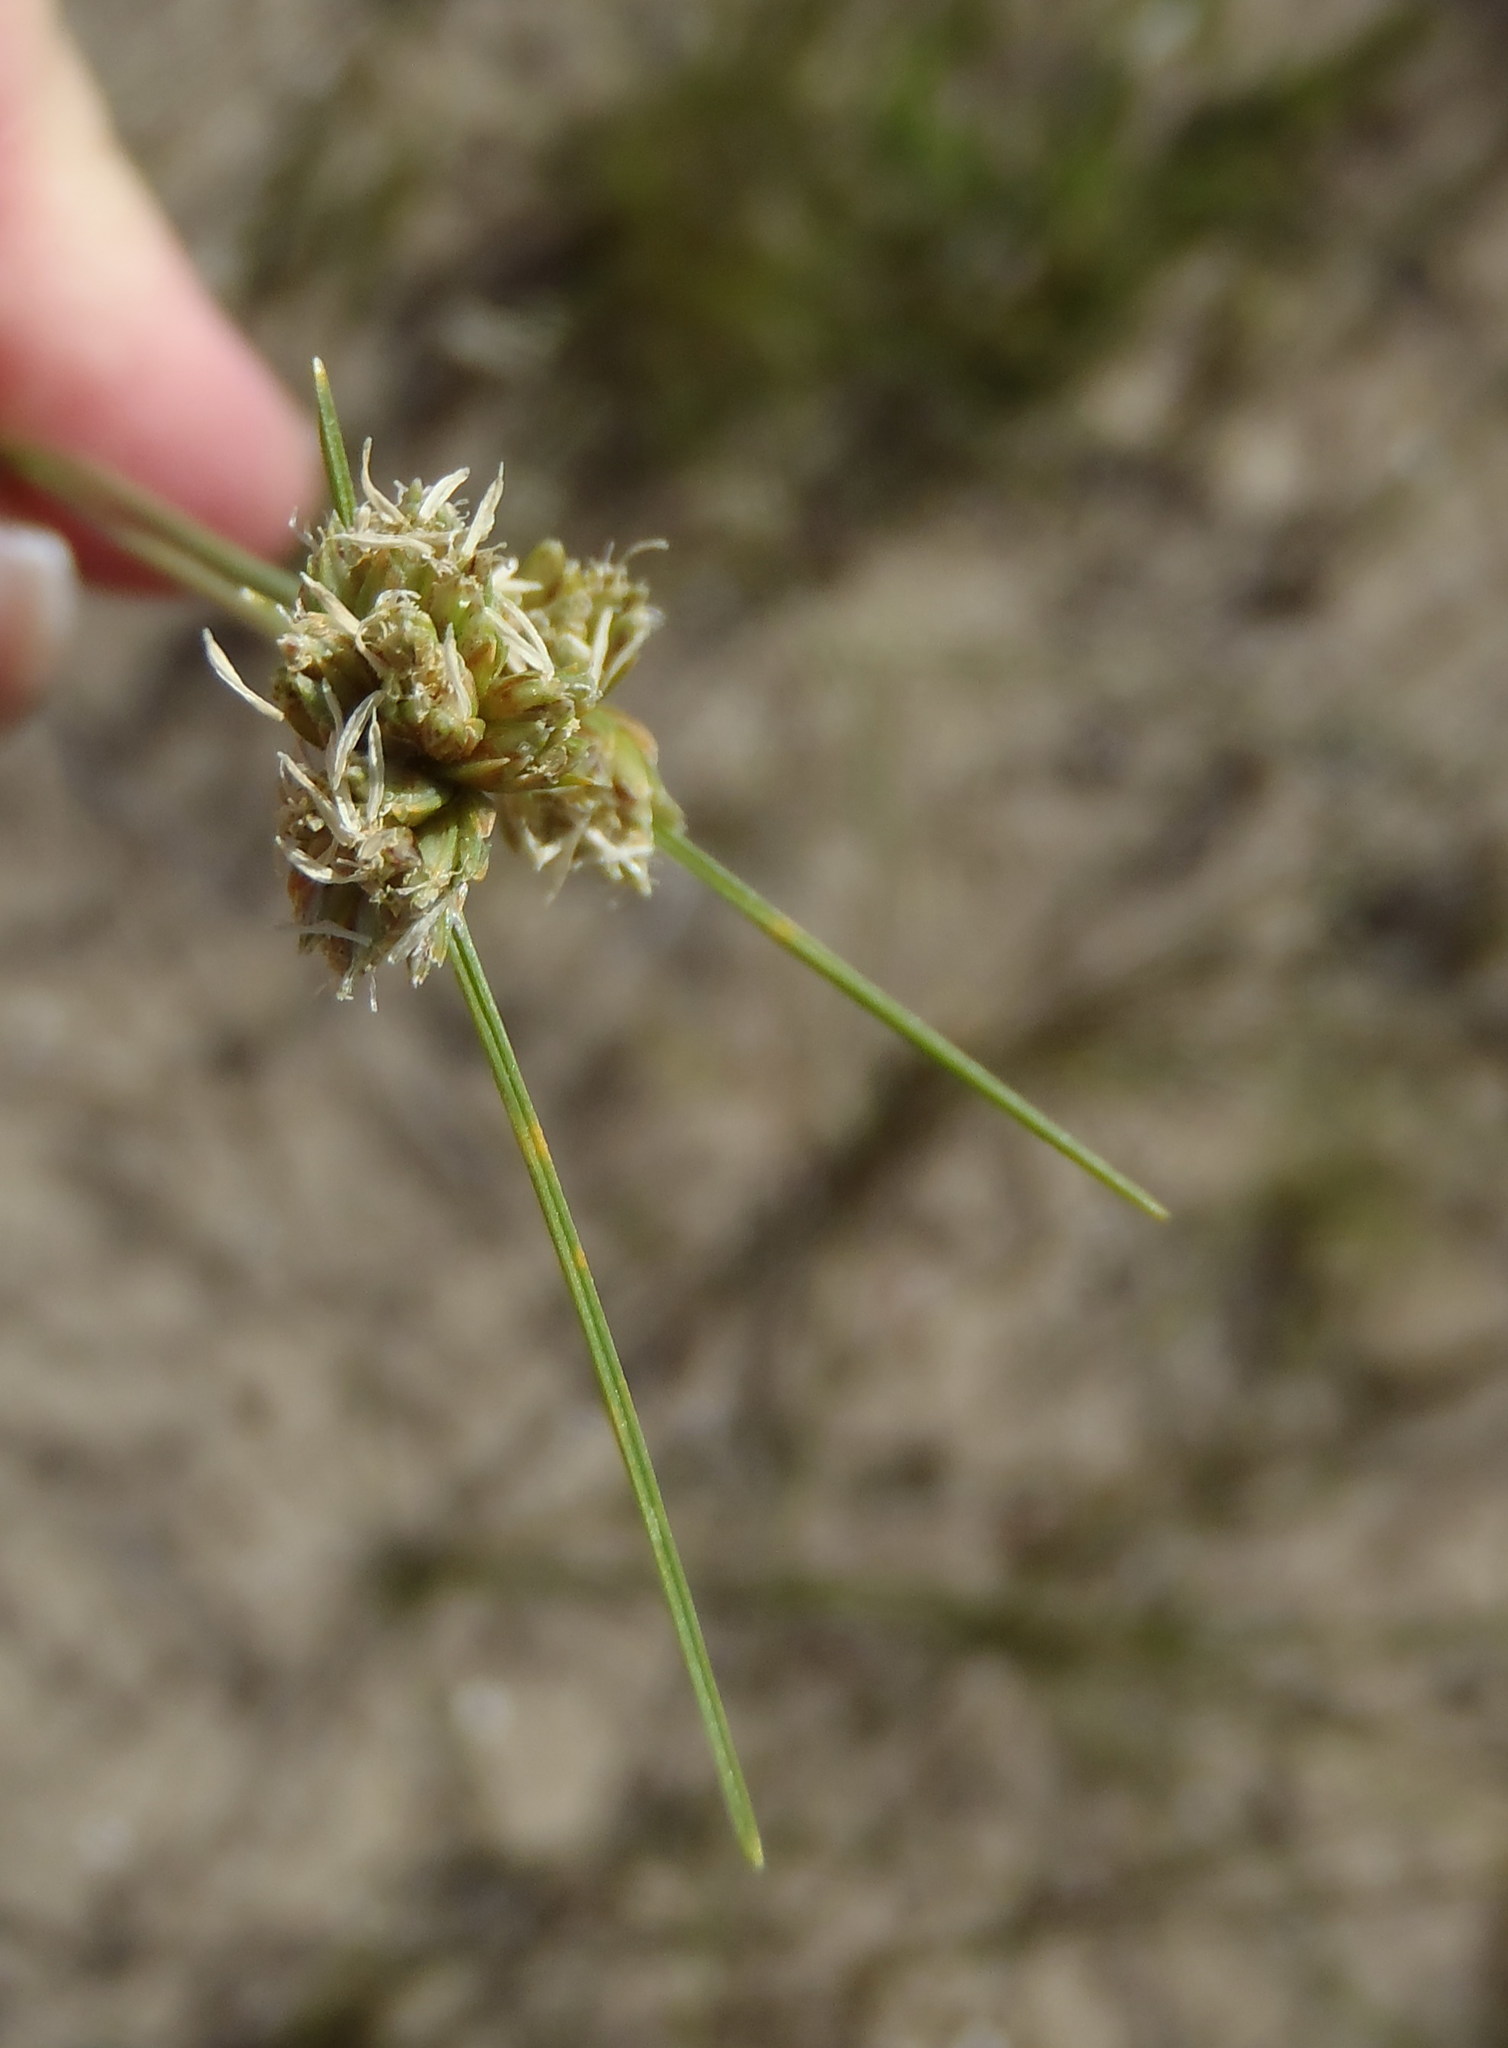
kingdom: Plantae
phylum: Tracheophyta
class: Liliopsida
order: Poales
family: Cyperaceae
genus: Ficinia
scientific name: Ficinia albicans
